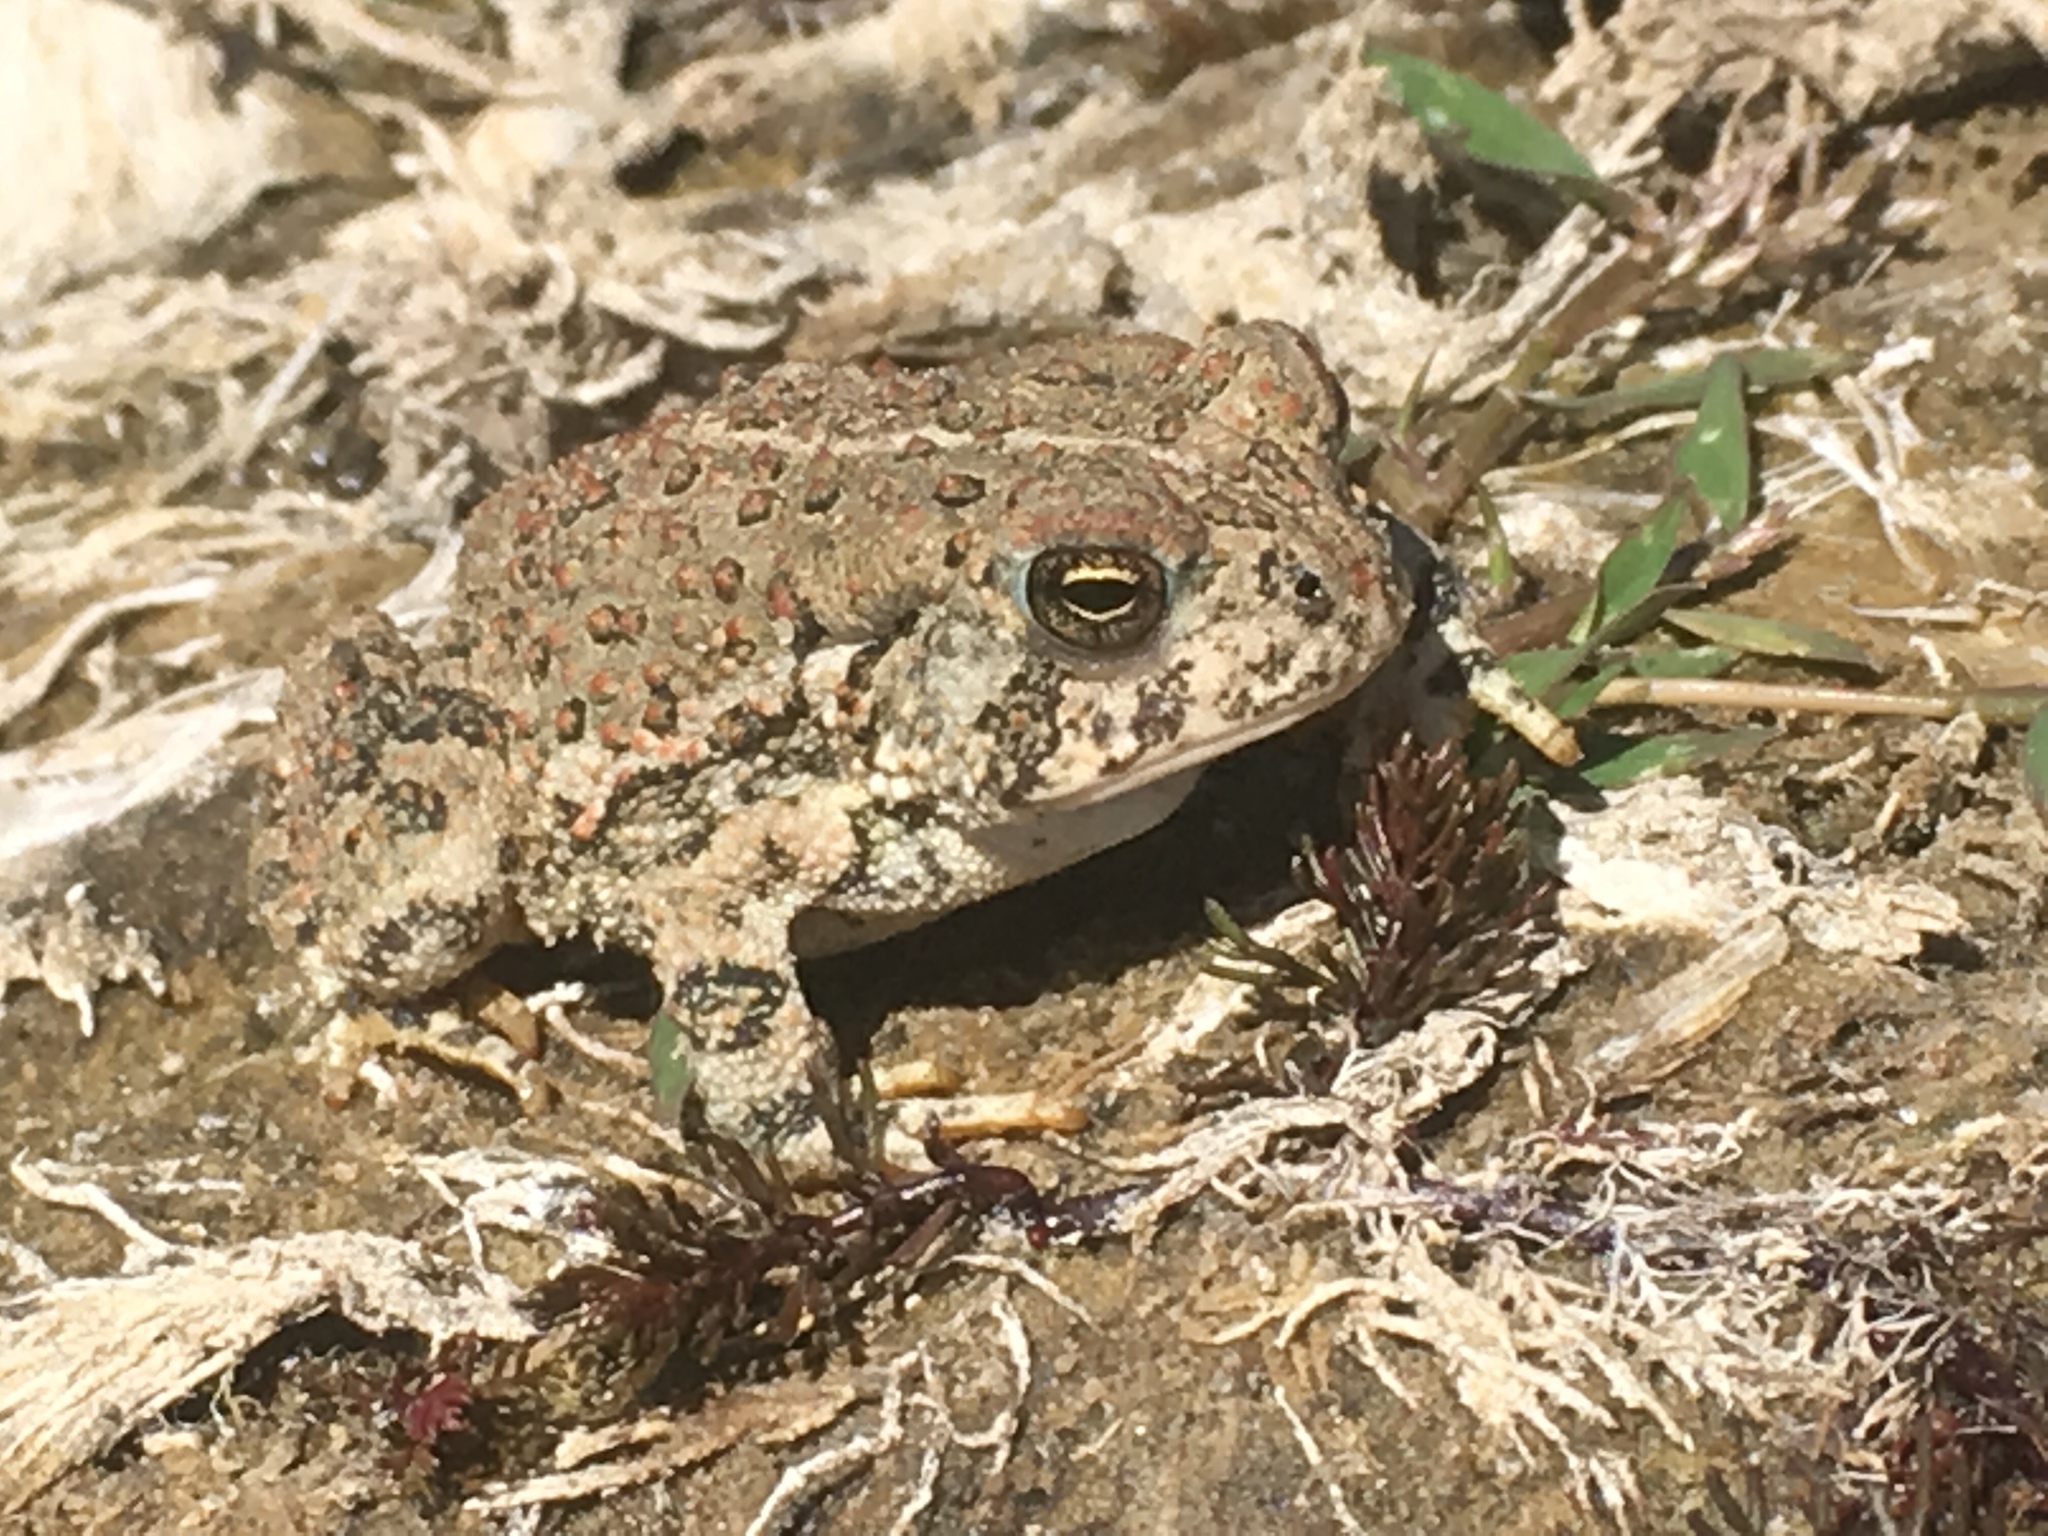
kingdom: Animalia
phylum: Chordata
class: Amphibia
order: Anura
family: Bufonidae
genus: Anaxyrus
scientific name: Anaxyrus woodhousii
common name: Woodhouse's toad
